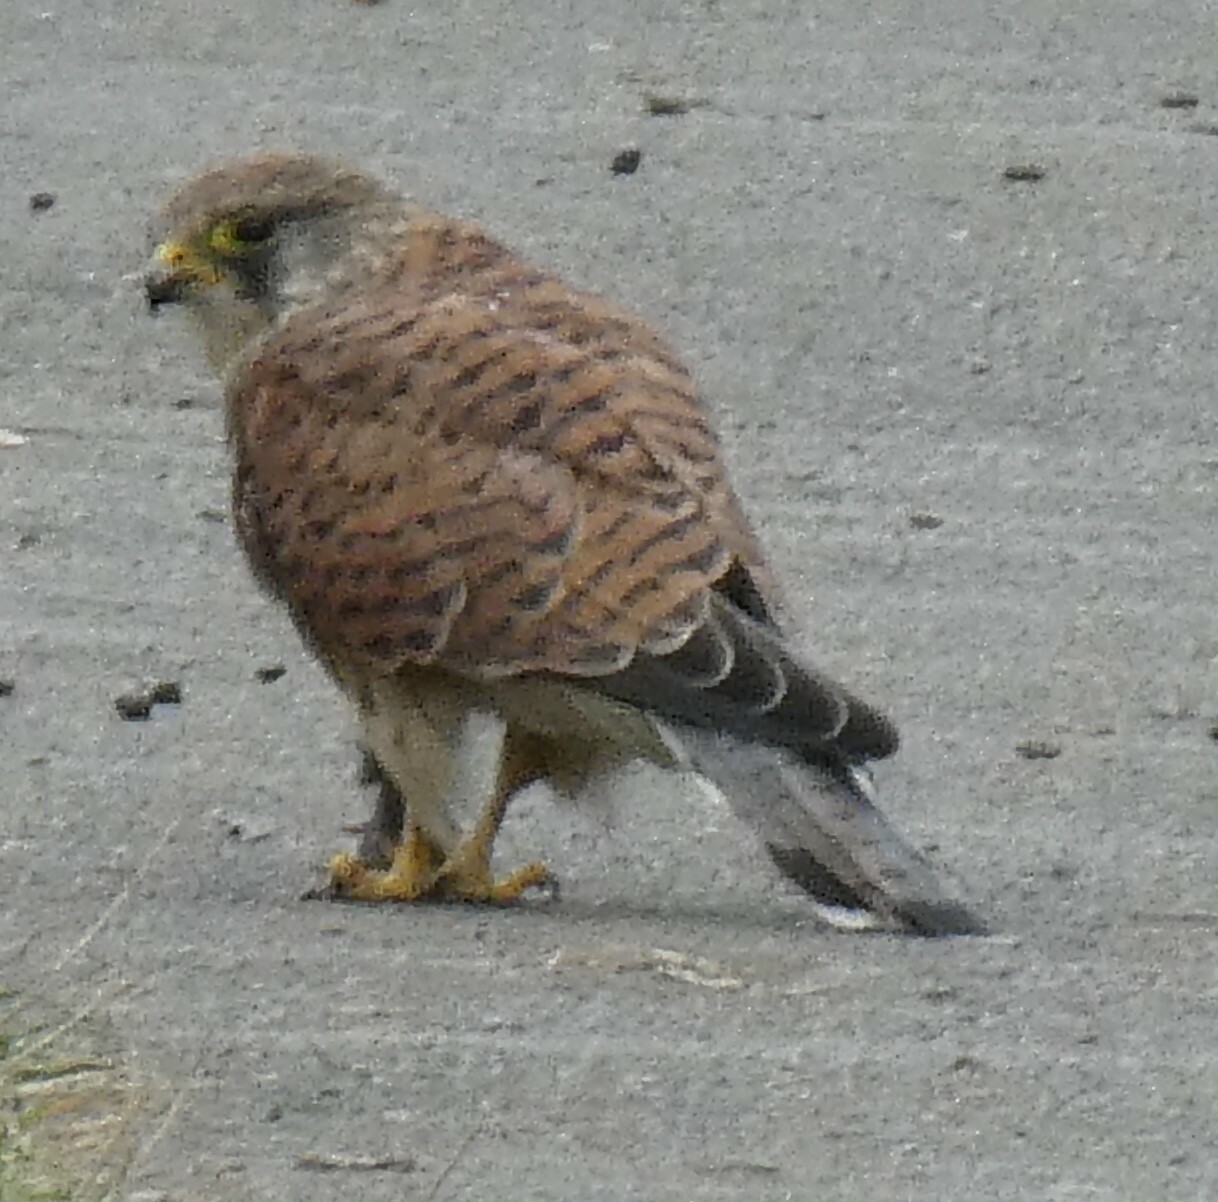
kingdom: Animalia
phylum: Chordata
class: Aves
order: Falconiformes
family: Falconidae
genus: Falco
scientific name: Falco tinnunculus
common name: Common kestrel
